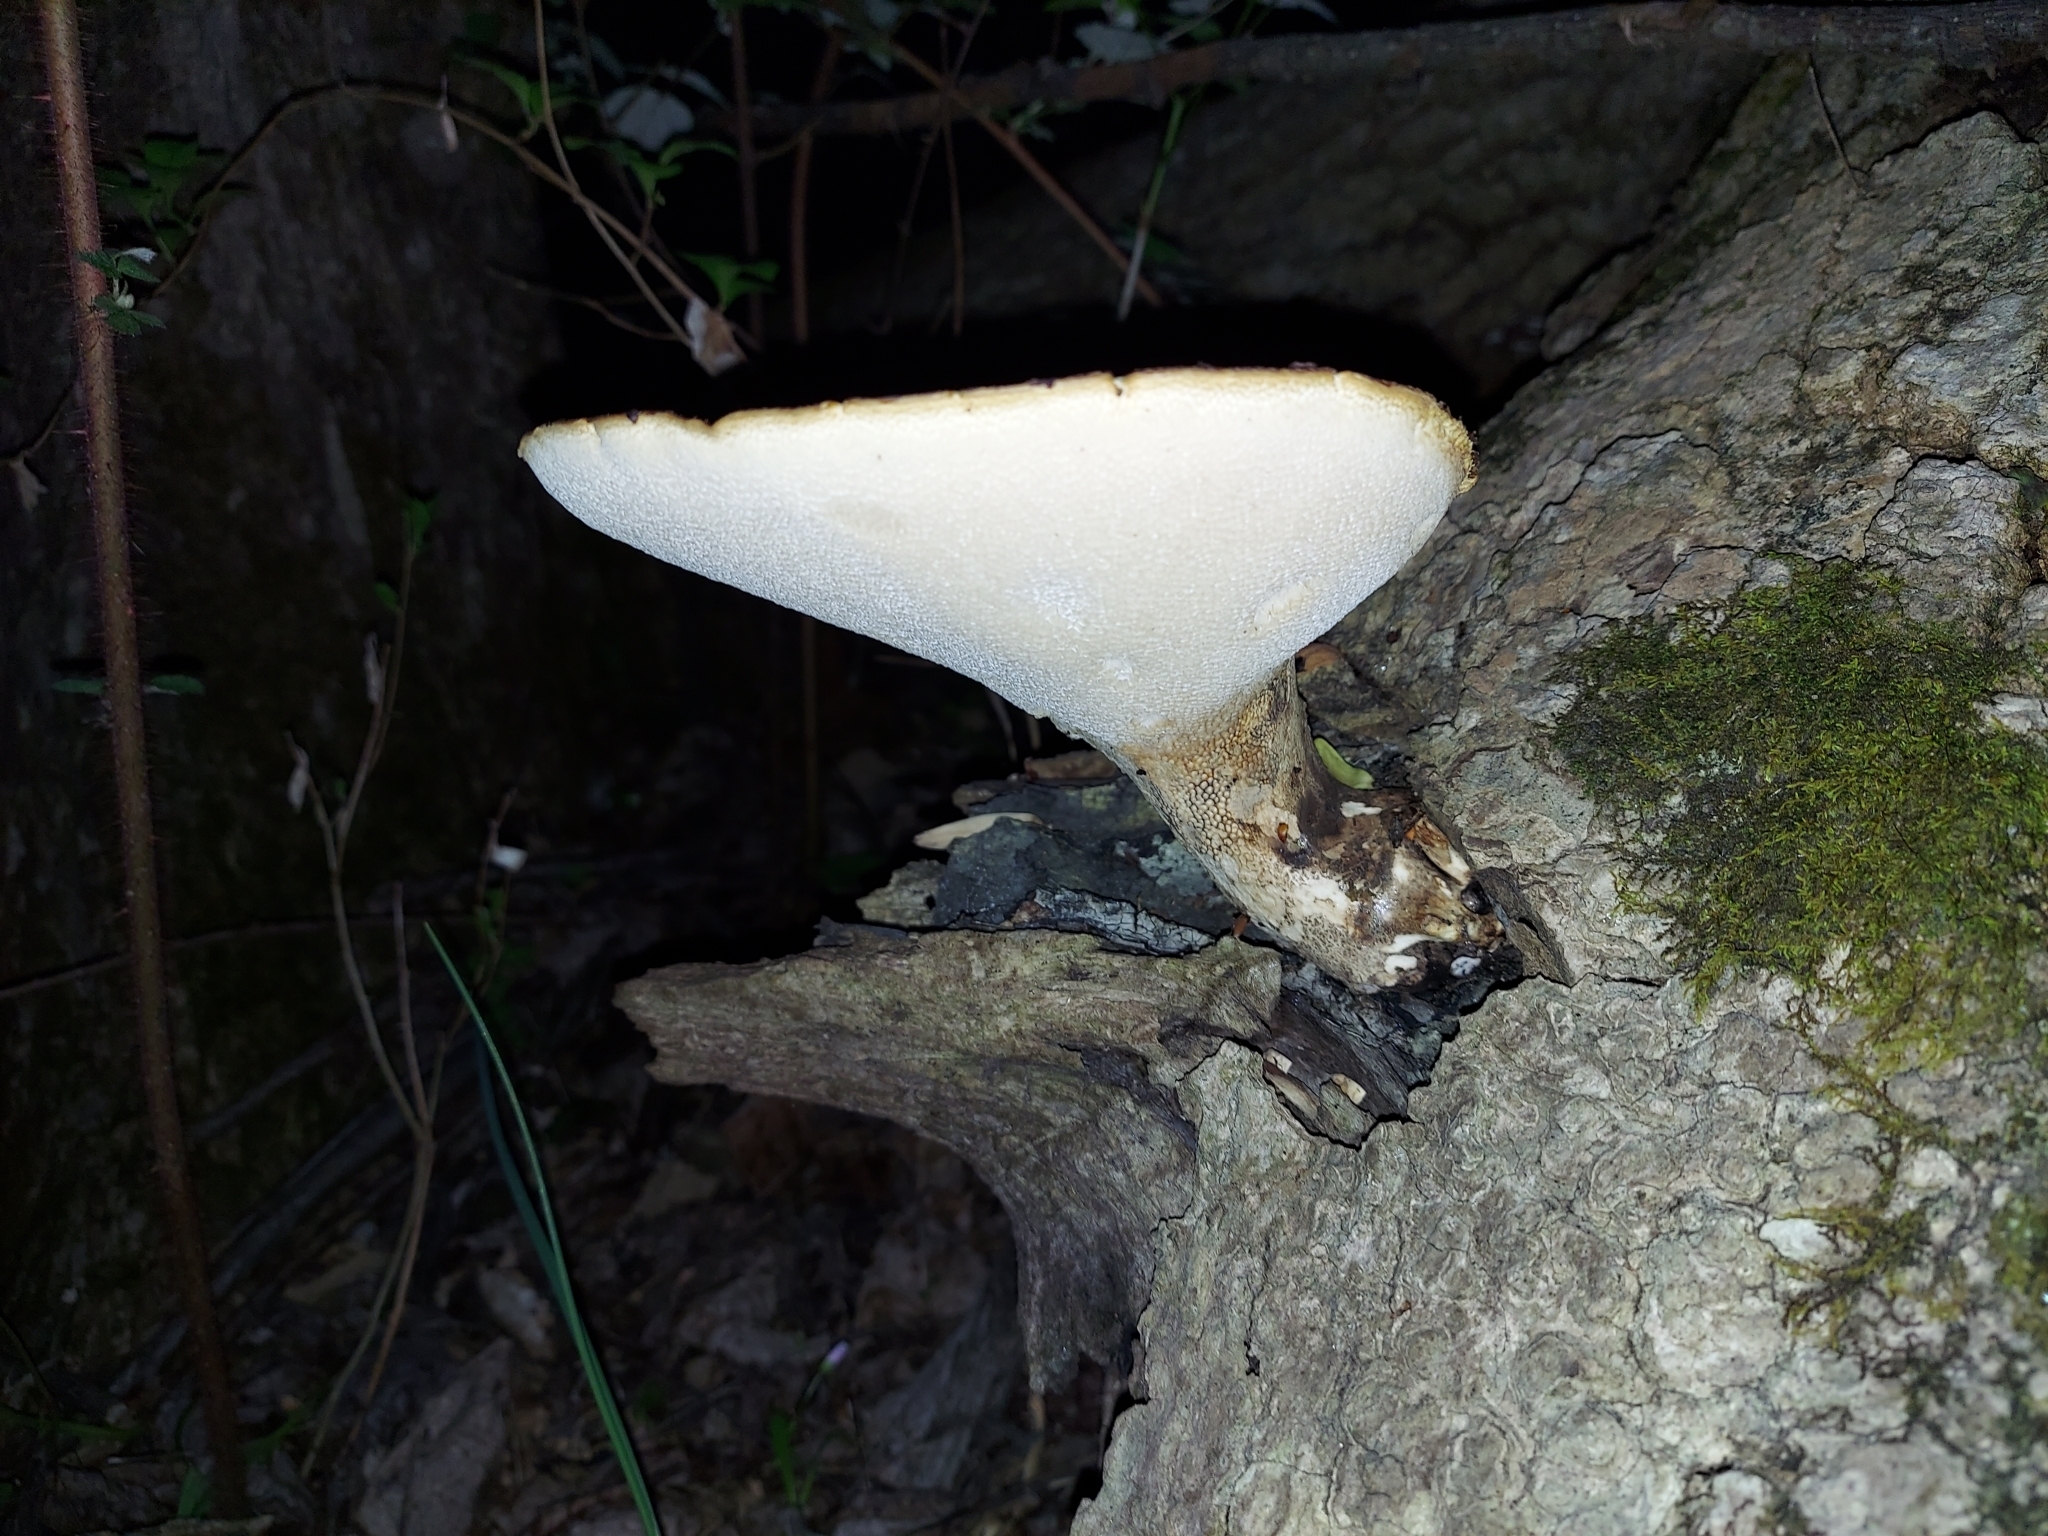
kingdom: Fungi
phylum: Basidiomycota
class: Agaricomycetes
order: Polyporales
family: Polyporaceae
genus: Cerioporus
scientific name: Cerioporus squamosus
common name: Dryad's saddle
